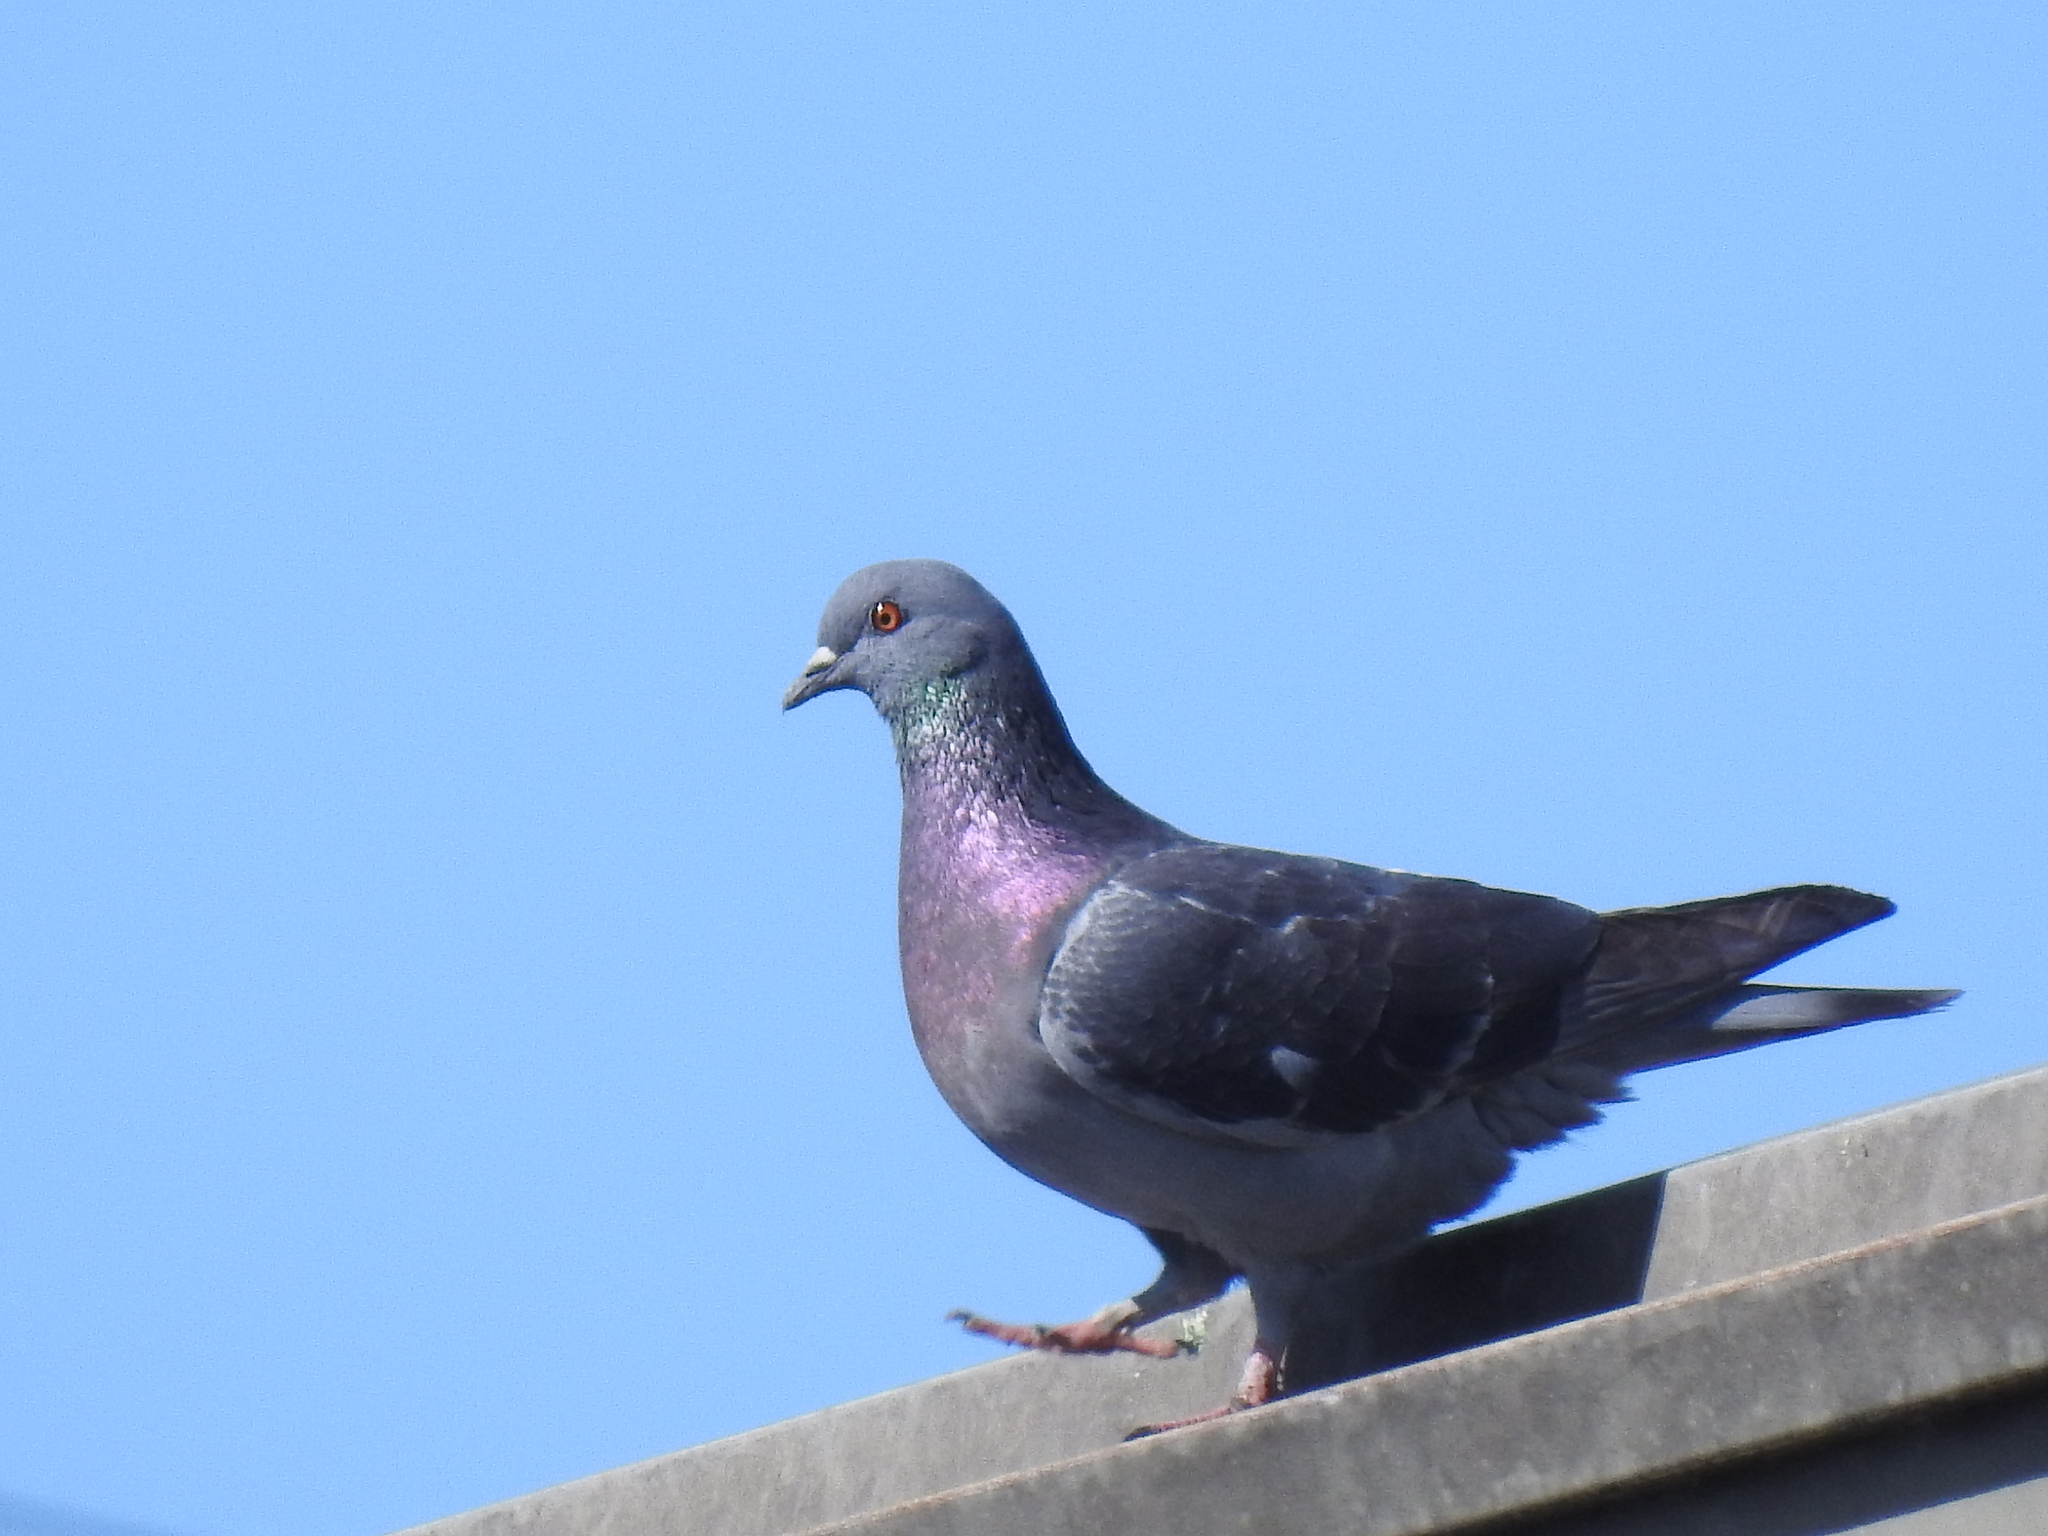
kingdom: Animalia
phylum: Chordata
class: Aves
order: Columbiformes
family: Columbidae
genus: Columba
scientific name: Columba livia
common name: Rock pigeon
